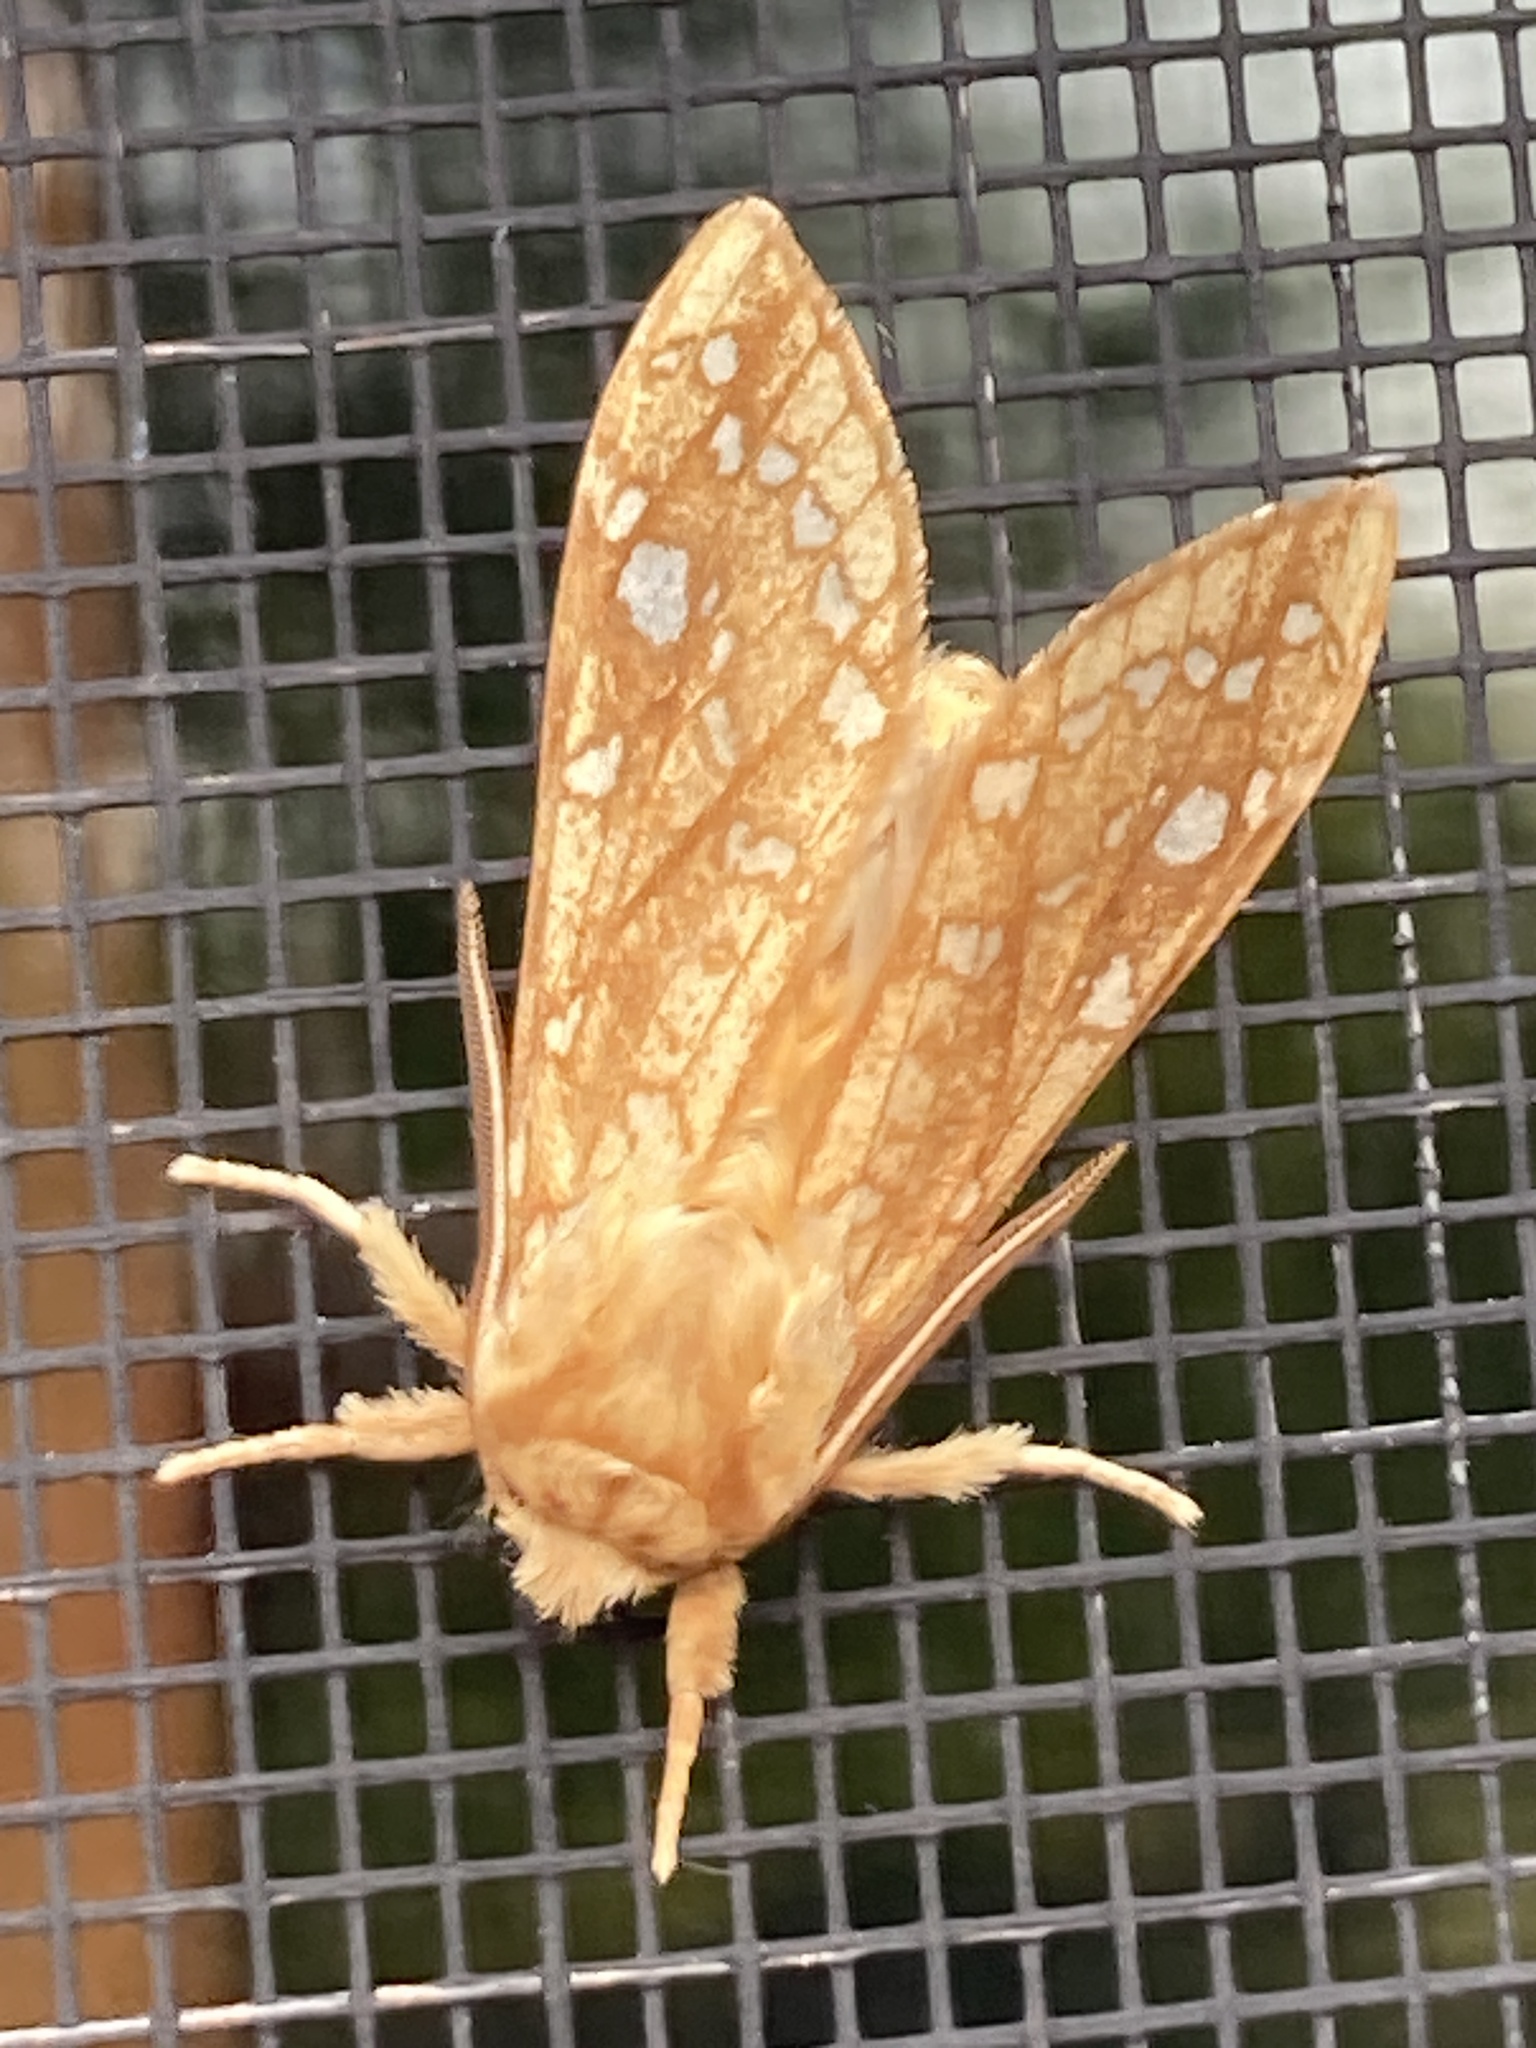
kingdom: Animalia
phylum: Arthropoda
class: Insecta
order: Lepidoptera
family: Erebidae
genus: Lophocampa
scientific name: Lophocampa caryae
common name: Hickory tussock moth
